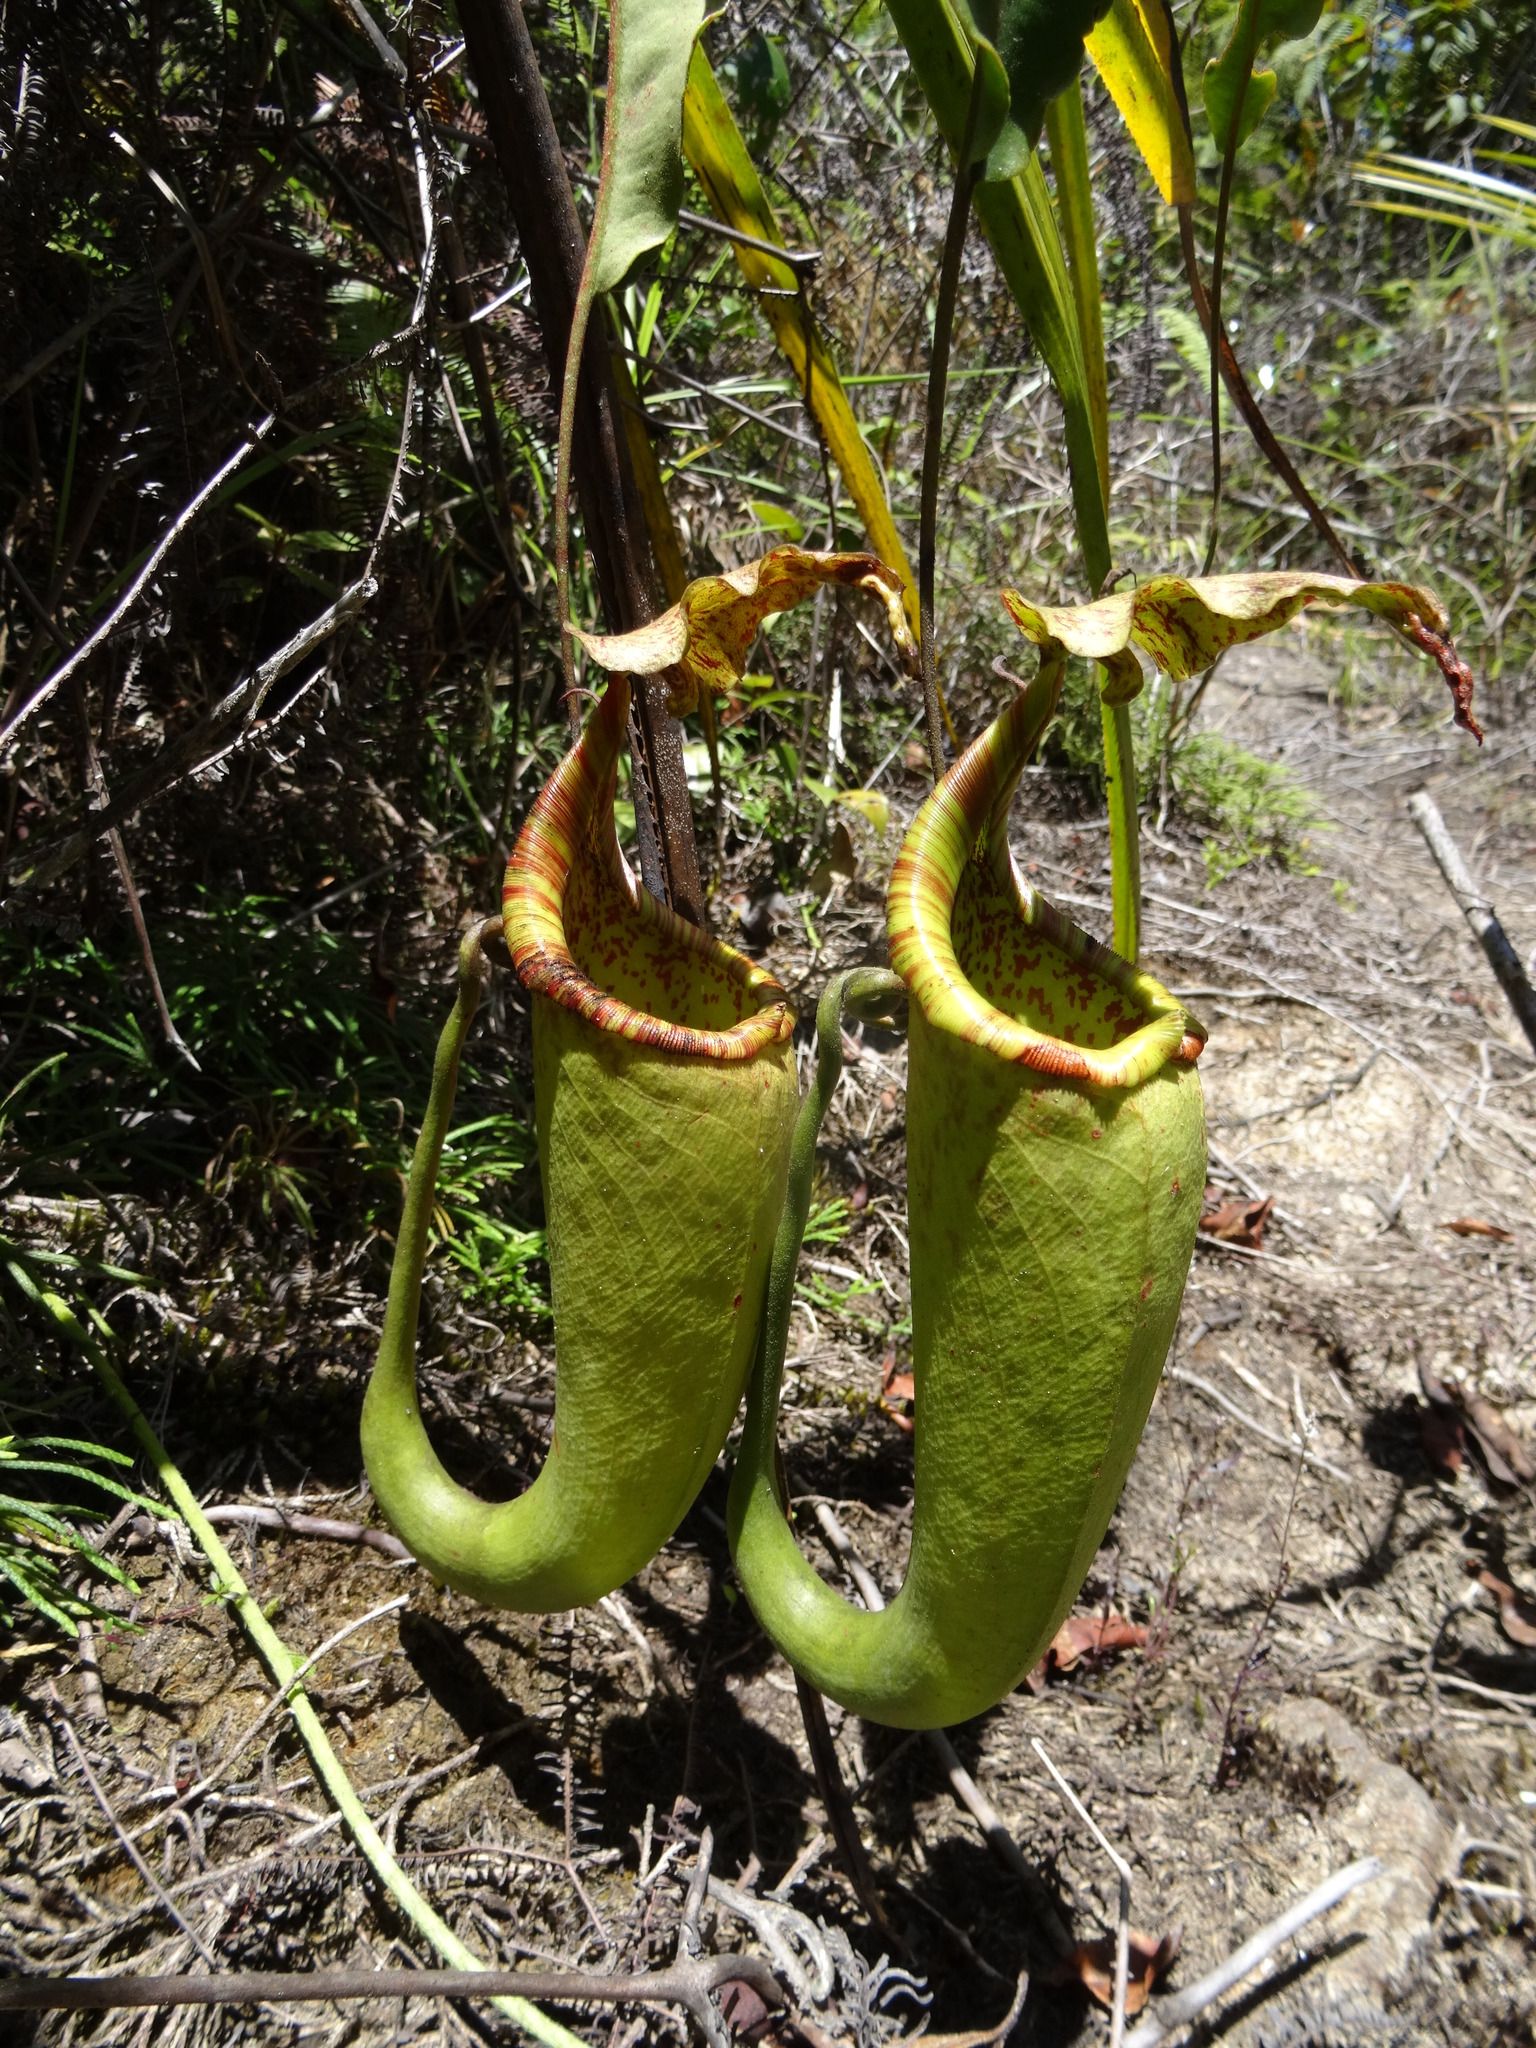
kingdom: Plantae
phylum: Tracheophyta
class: Magnoliopsida
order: Caryophyllales
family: Nepenthaceae
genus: Nepenthes
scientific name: Nepenthes maxima
